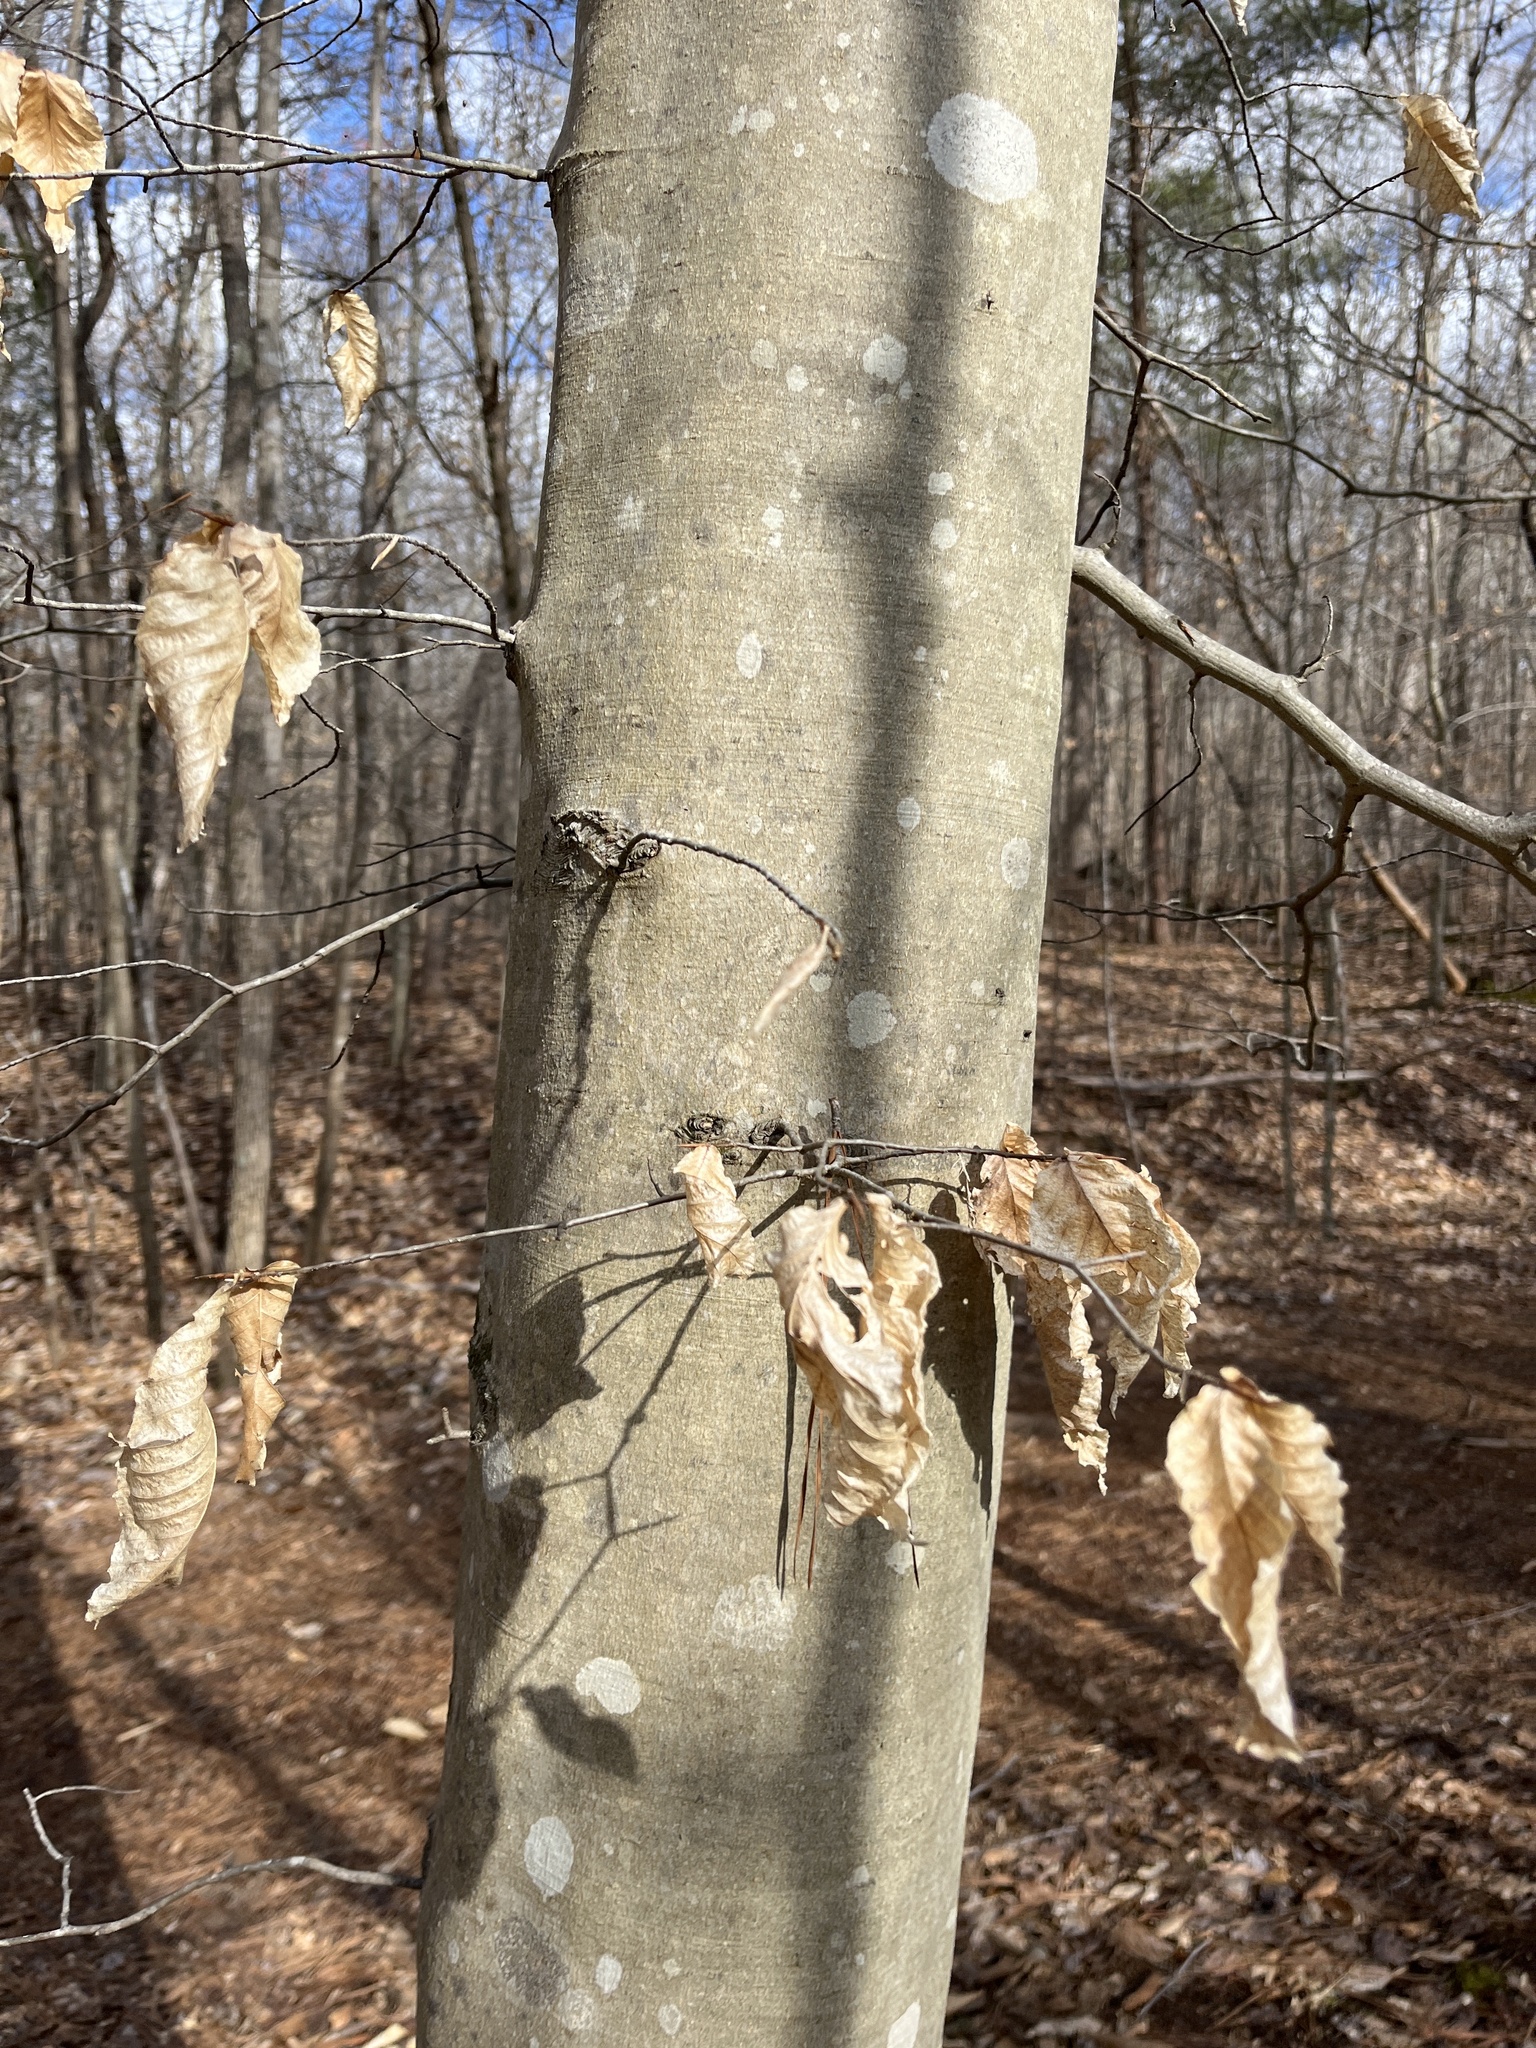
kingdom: Plantae
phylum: Tracheophyta
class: Magnoliopsida
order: Fagales
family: Fagaceae
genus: Fagus
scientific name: Fagus grandifolia
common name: American beech
